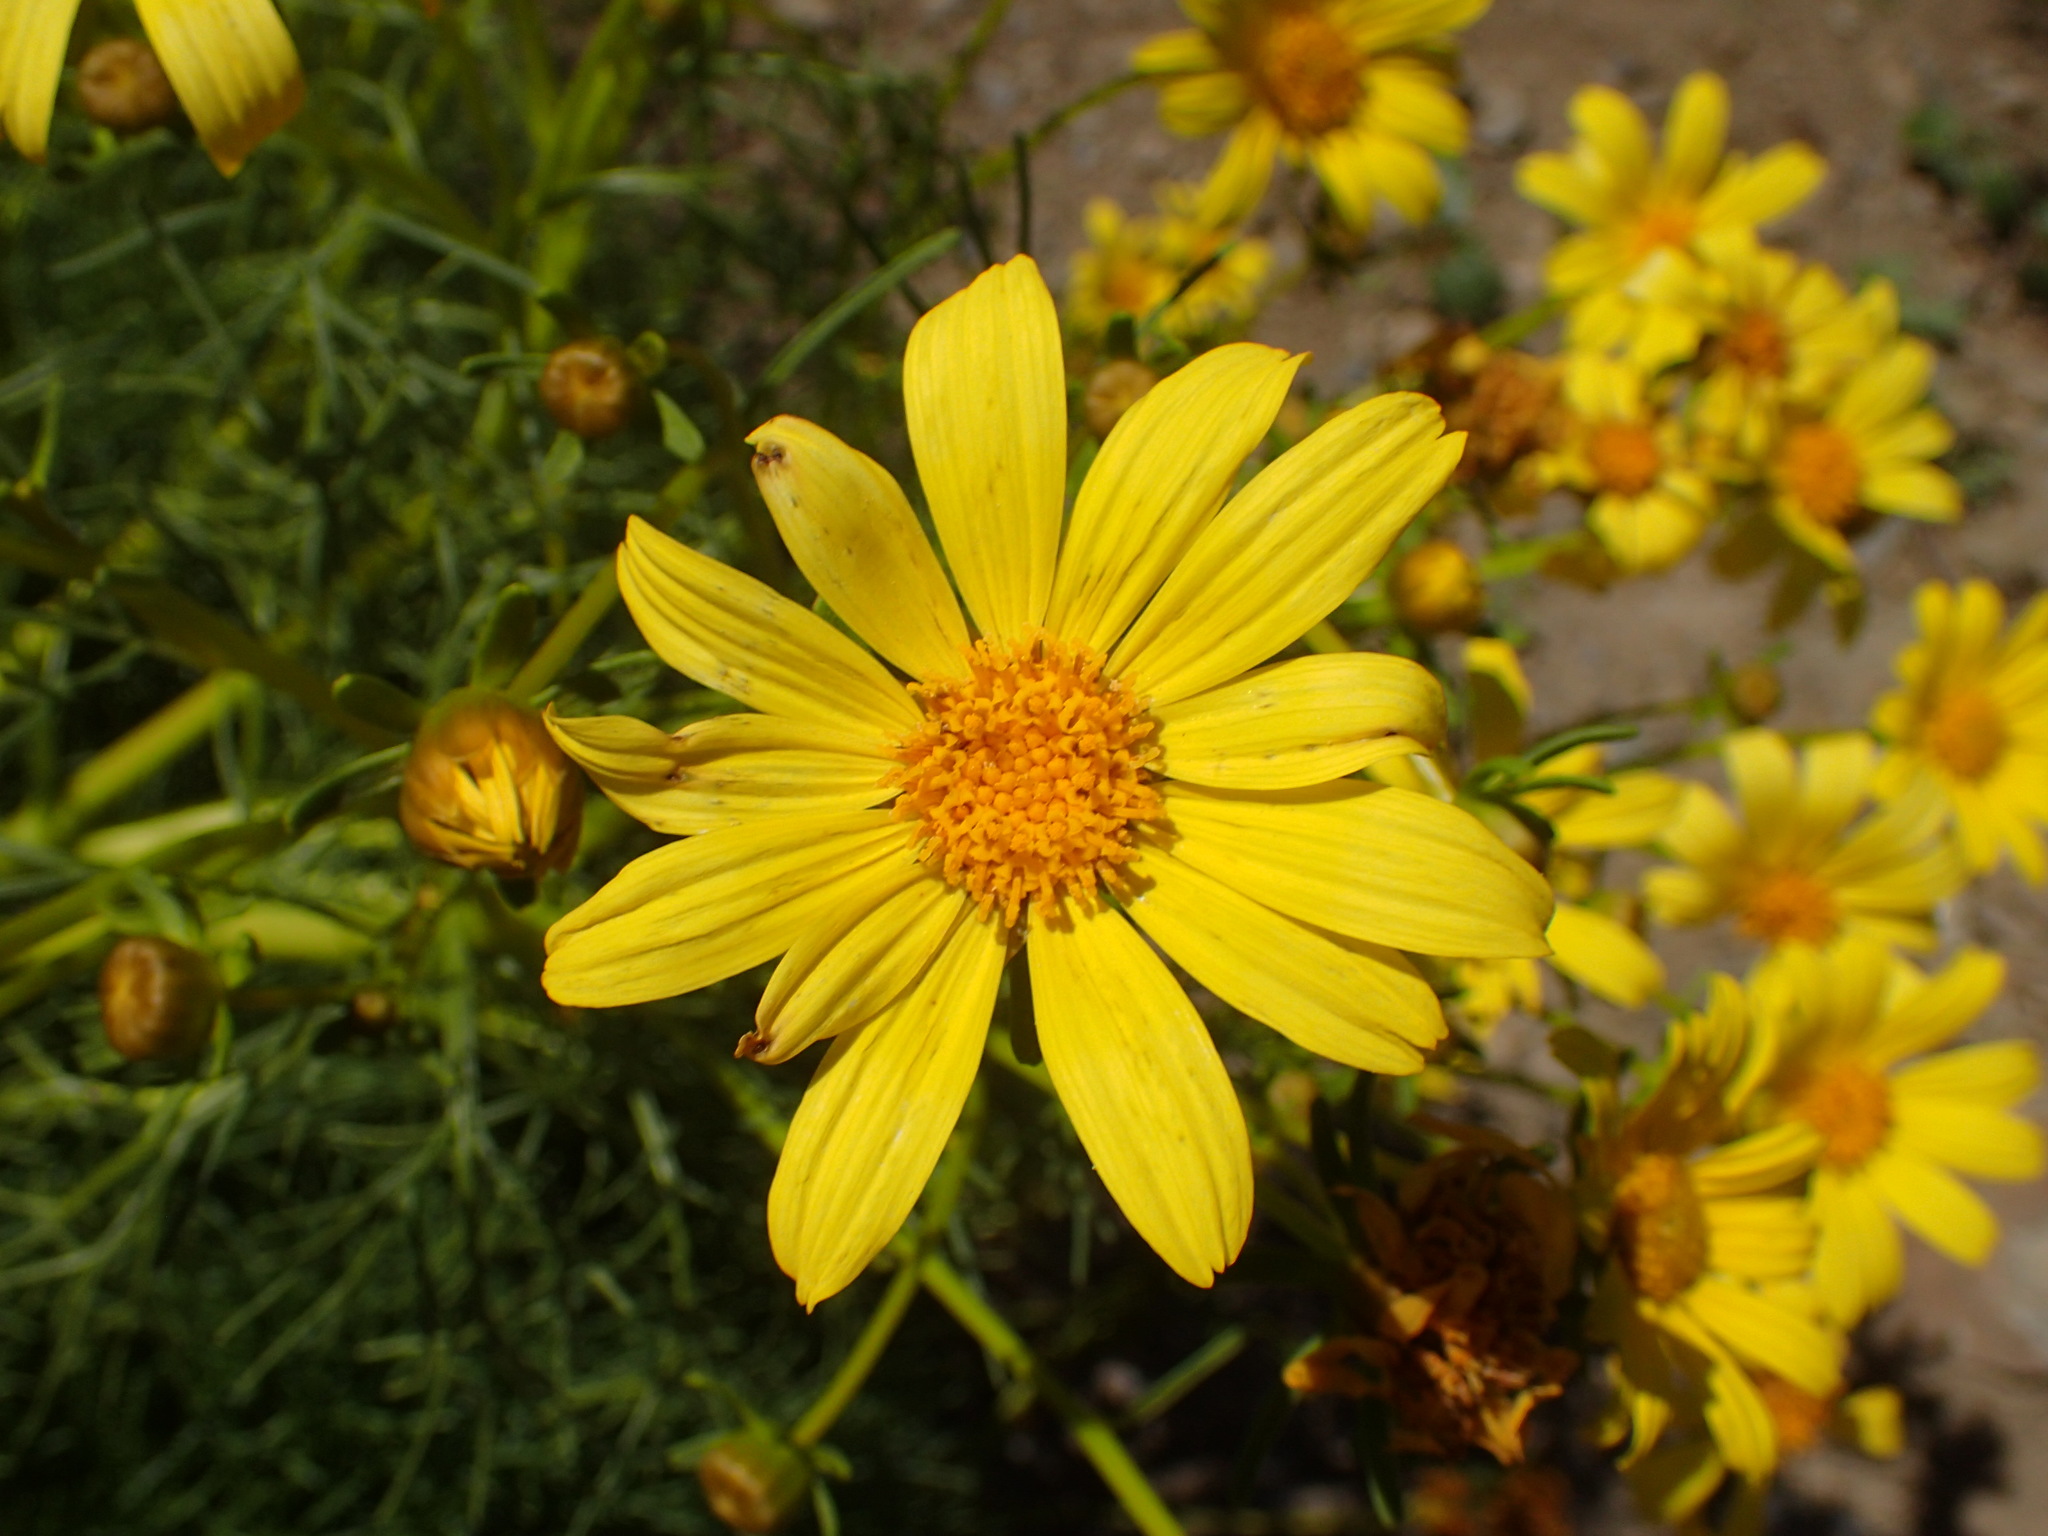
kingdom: Plantae
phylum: Tracheophyta
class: Magnoliopsida
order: Asterales
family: Asteraceae
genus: Coreopsis
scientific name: Coreopsis gigantea
